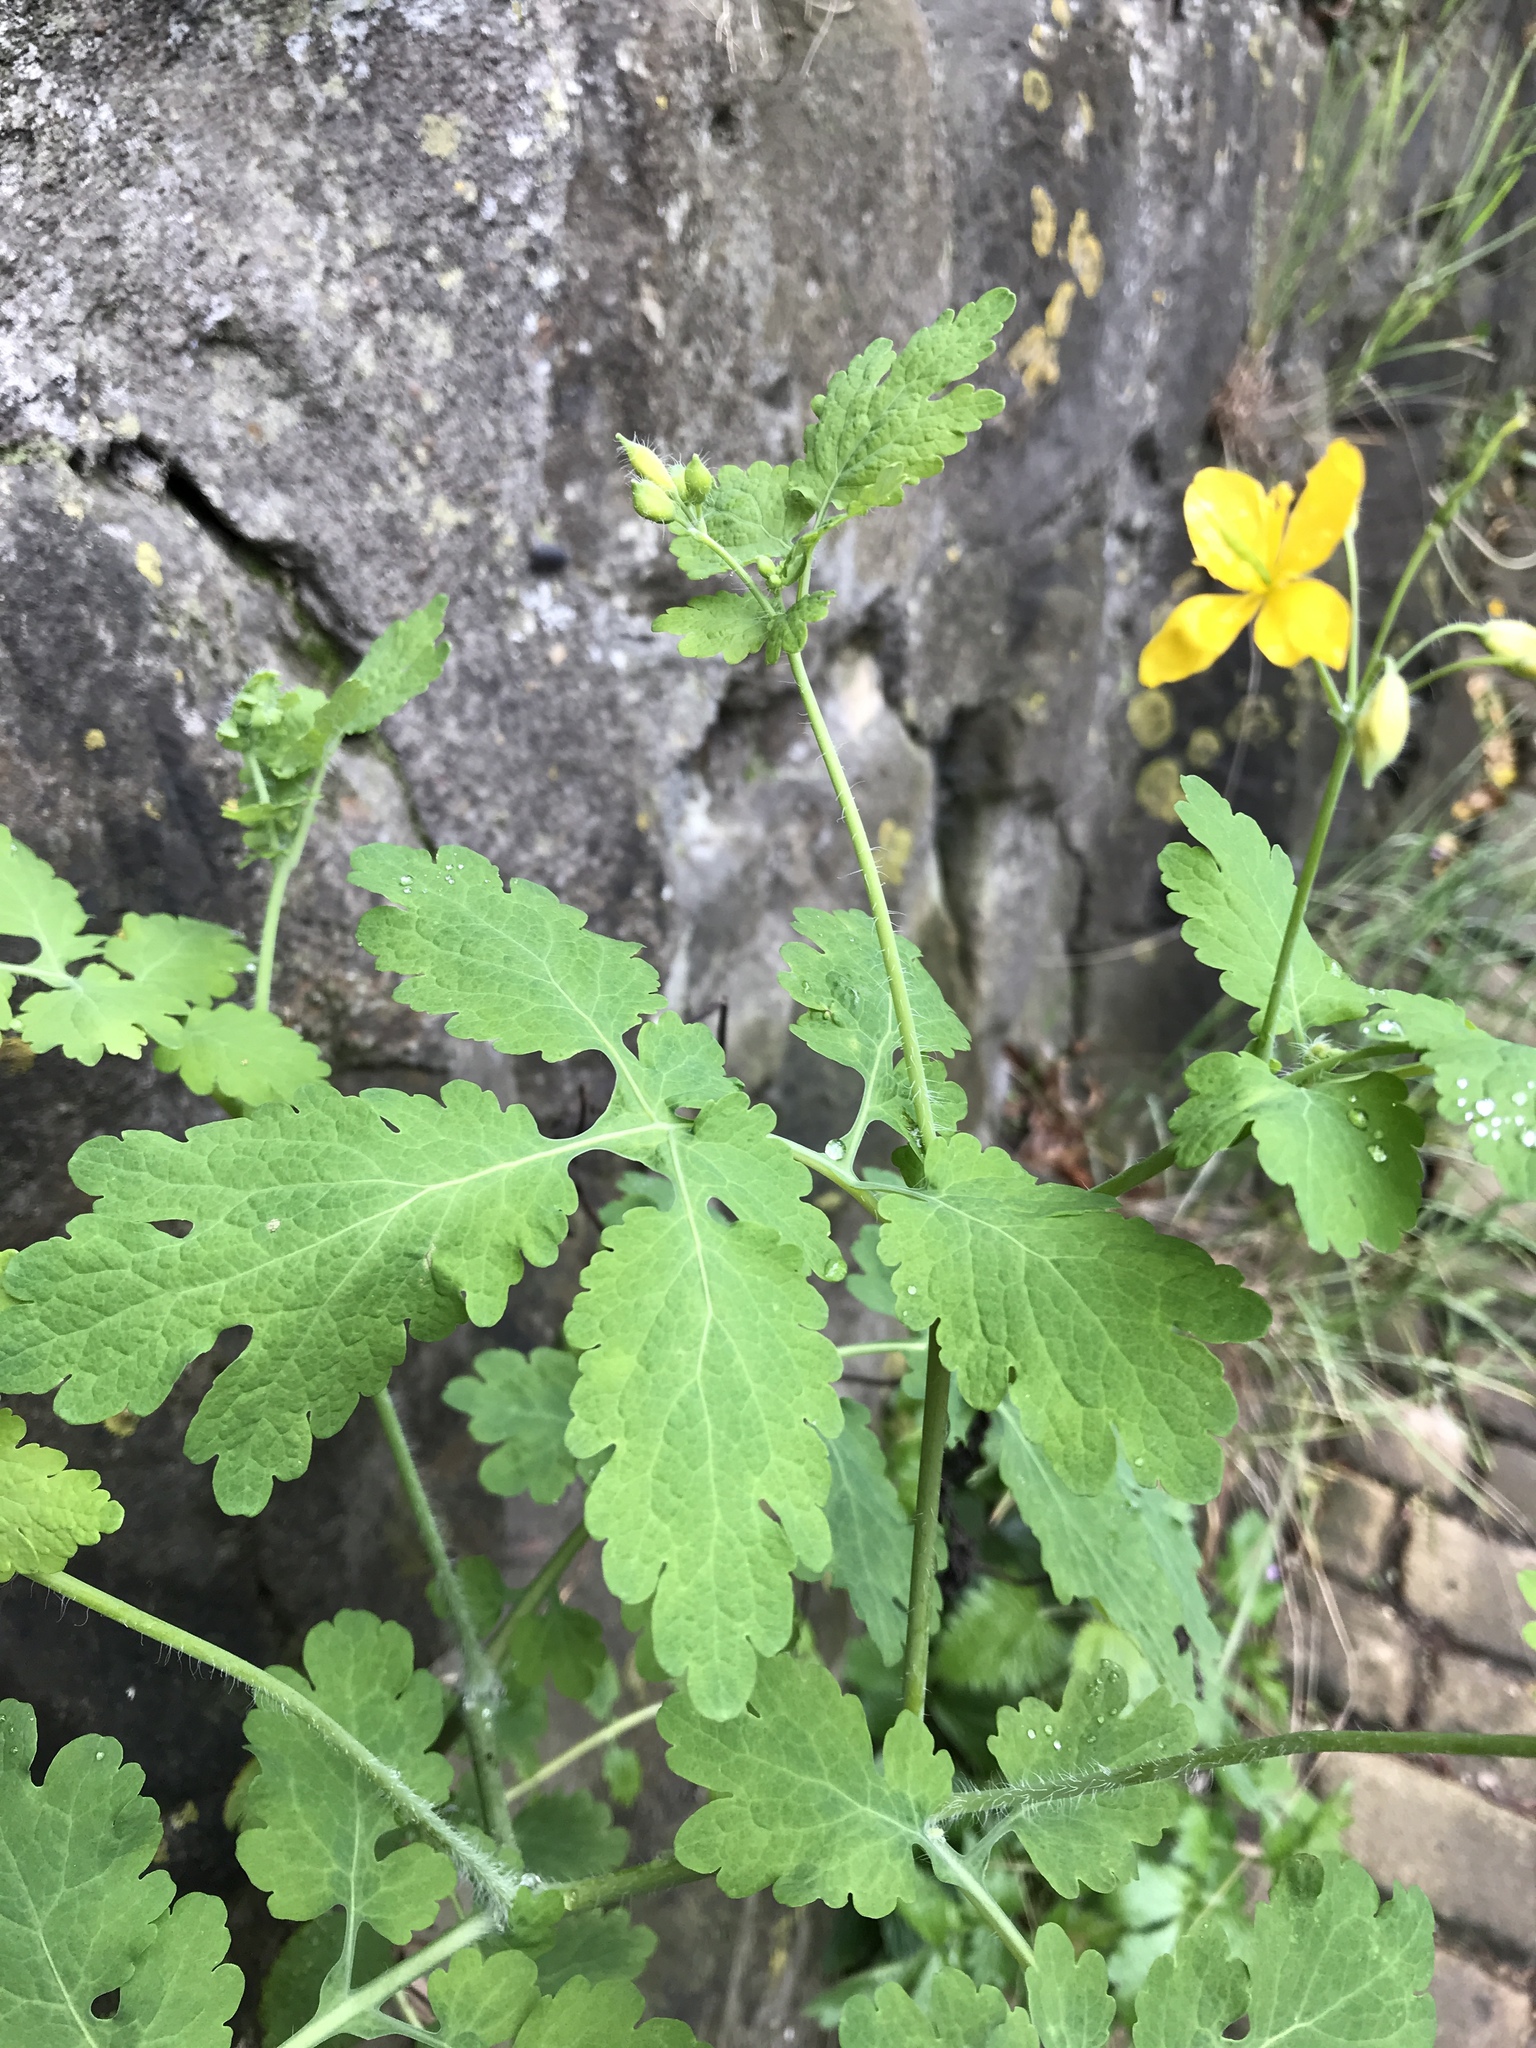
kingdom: Plantae
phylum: Tracheophyta
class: Magnoliopsida
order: Ranunculales
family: Papaveraceae
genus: Chelidonium
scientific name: Chelidonium majus
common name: Greater celandine
